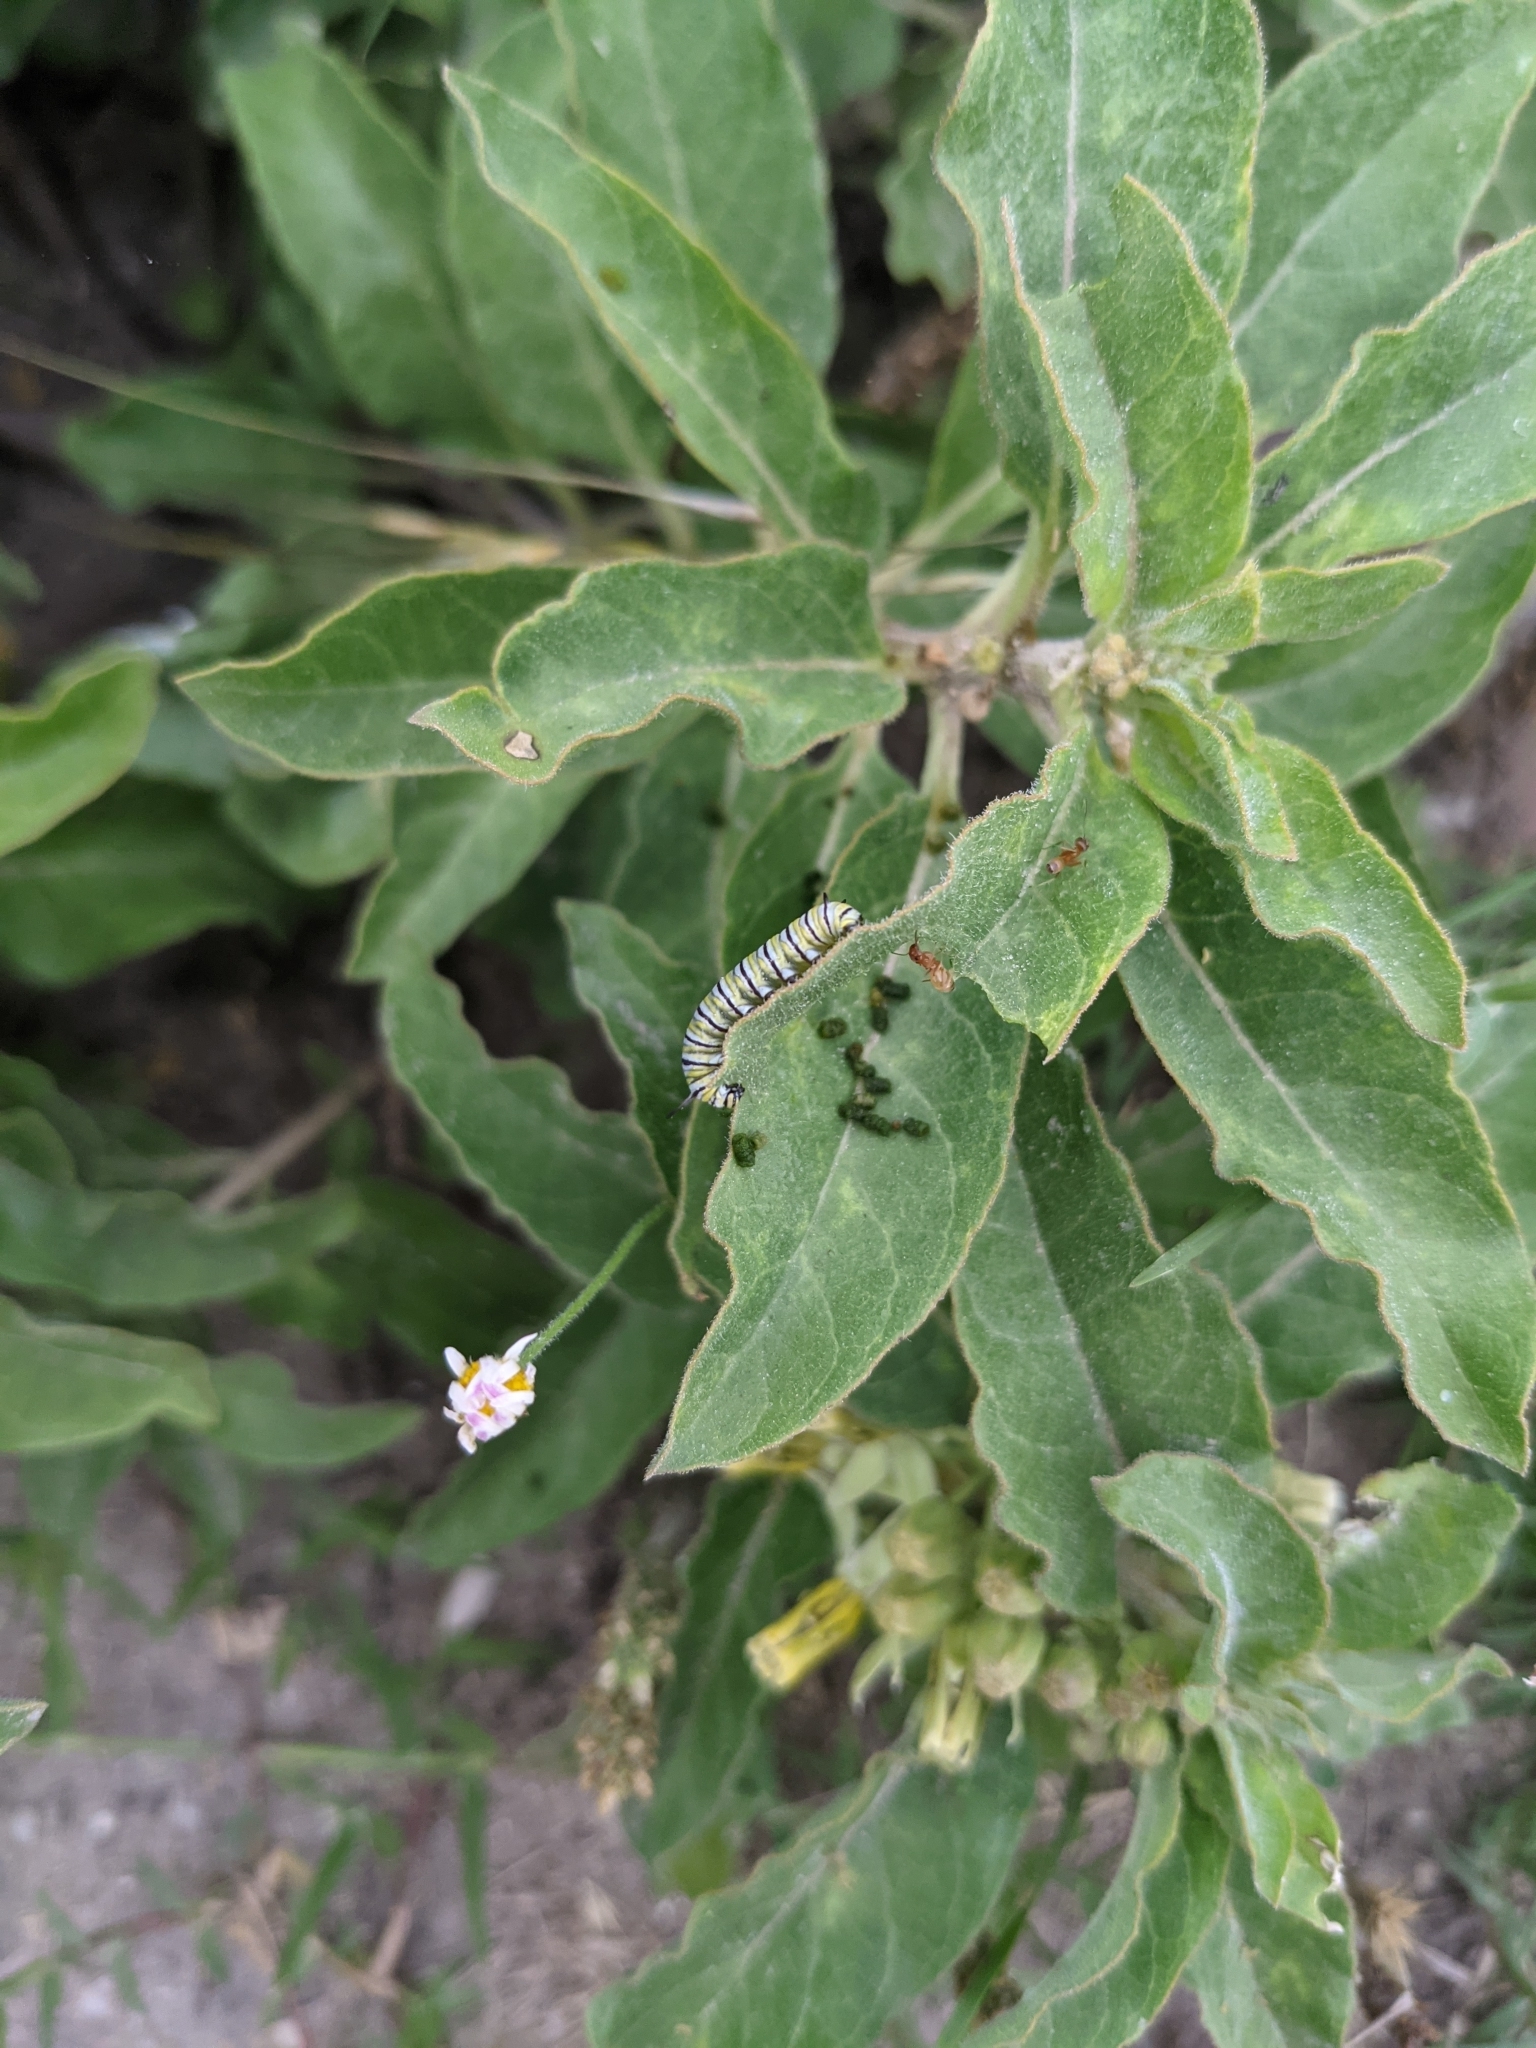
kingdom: Animalia
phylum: Arthropoda
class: Insecta
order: Lepidoptera
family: Nymphalidae
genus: Danaus
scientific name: Danaus plexippus
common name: Monarch
